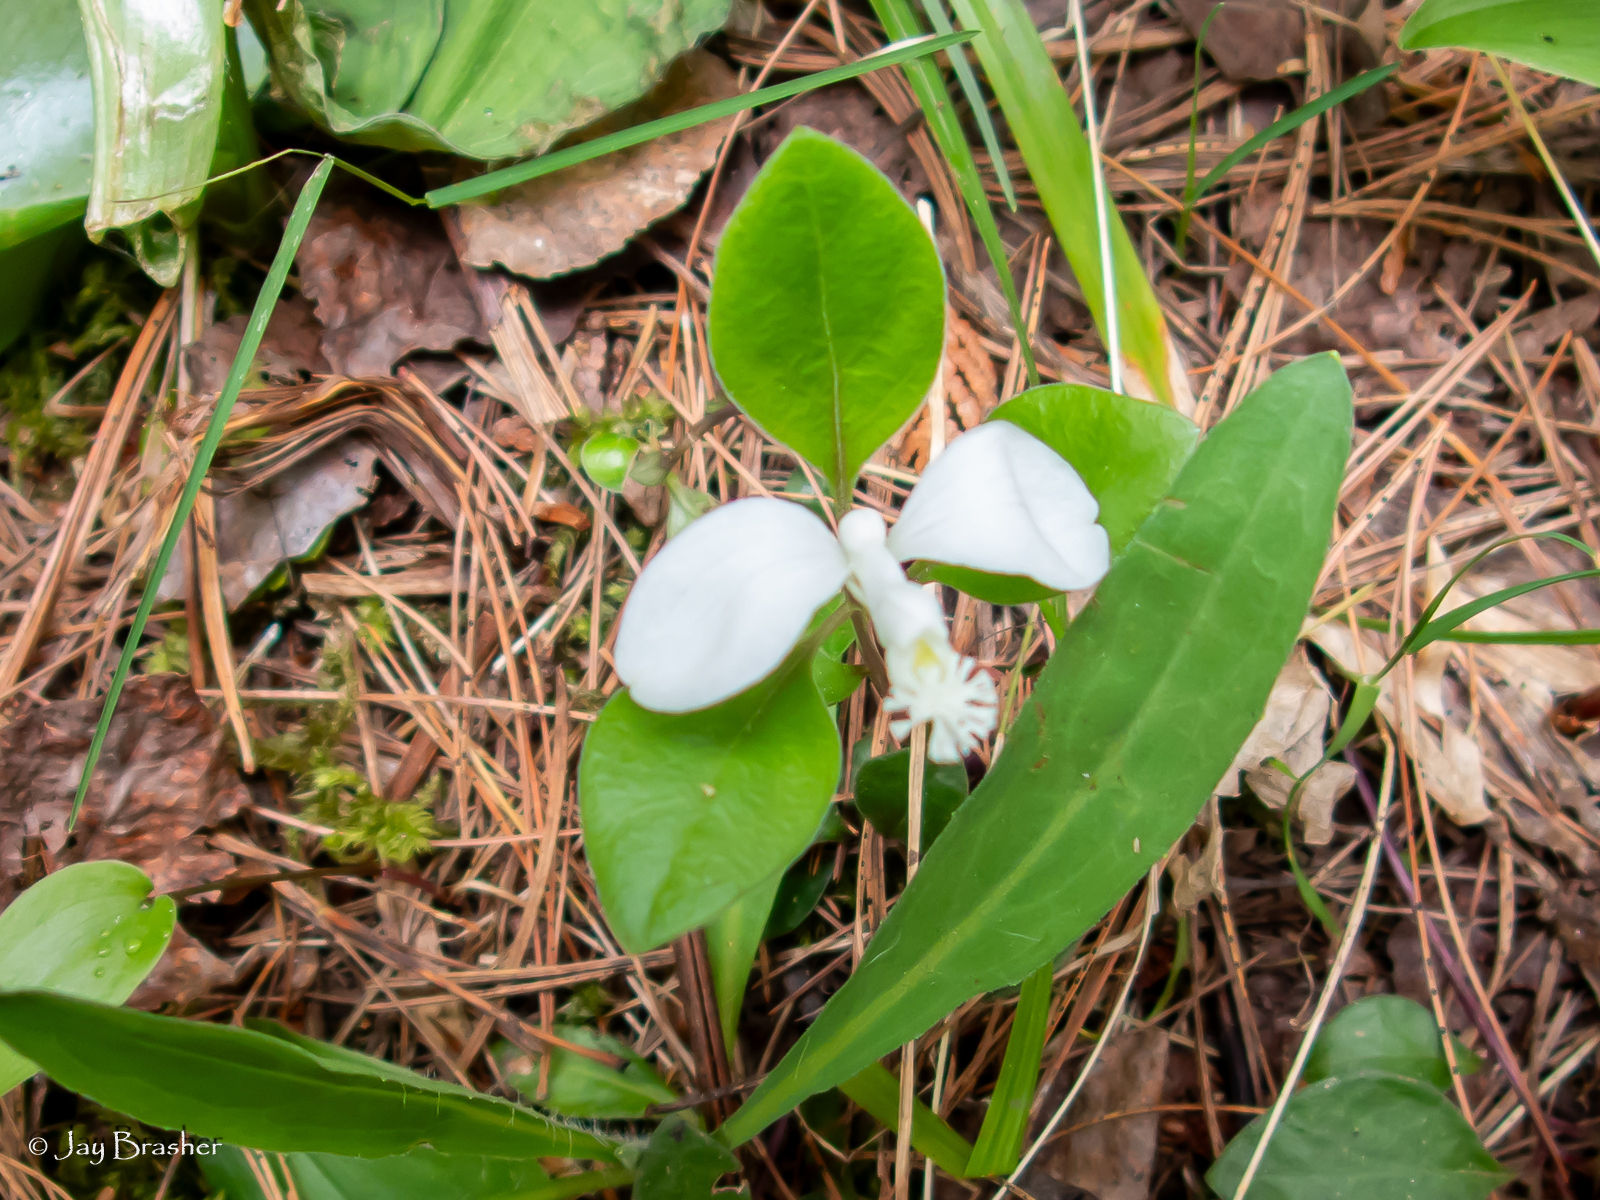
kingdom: Plantae
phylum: Tracheophyta
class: Magnoliopsida
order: Fabales
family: Polygalaceae
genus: Polygaloides
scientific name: Polygaloides paucifolia
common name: Bird-on-the-wing
